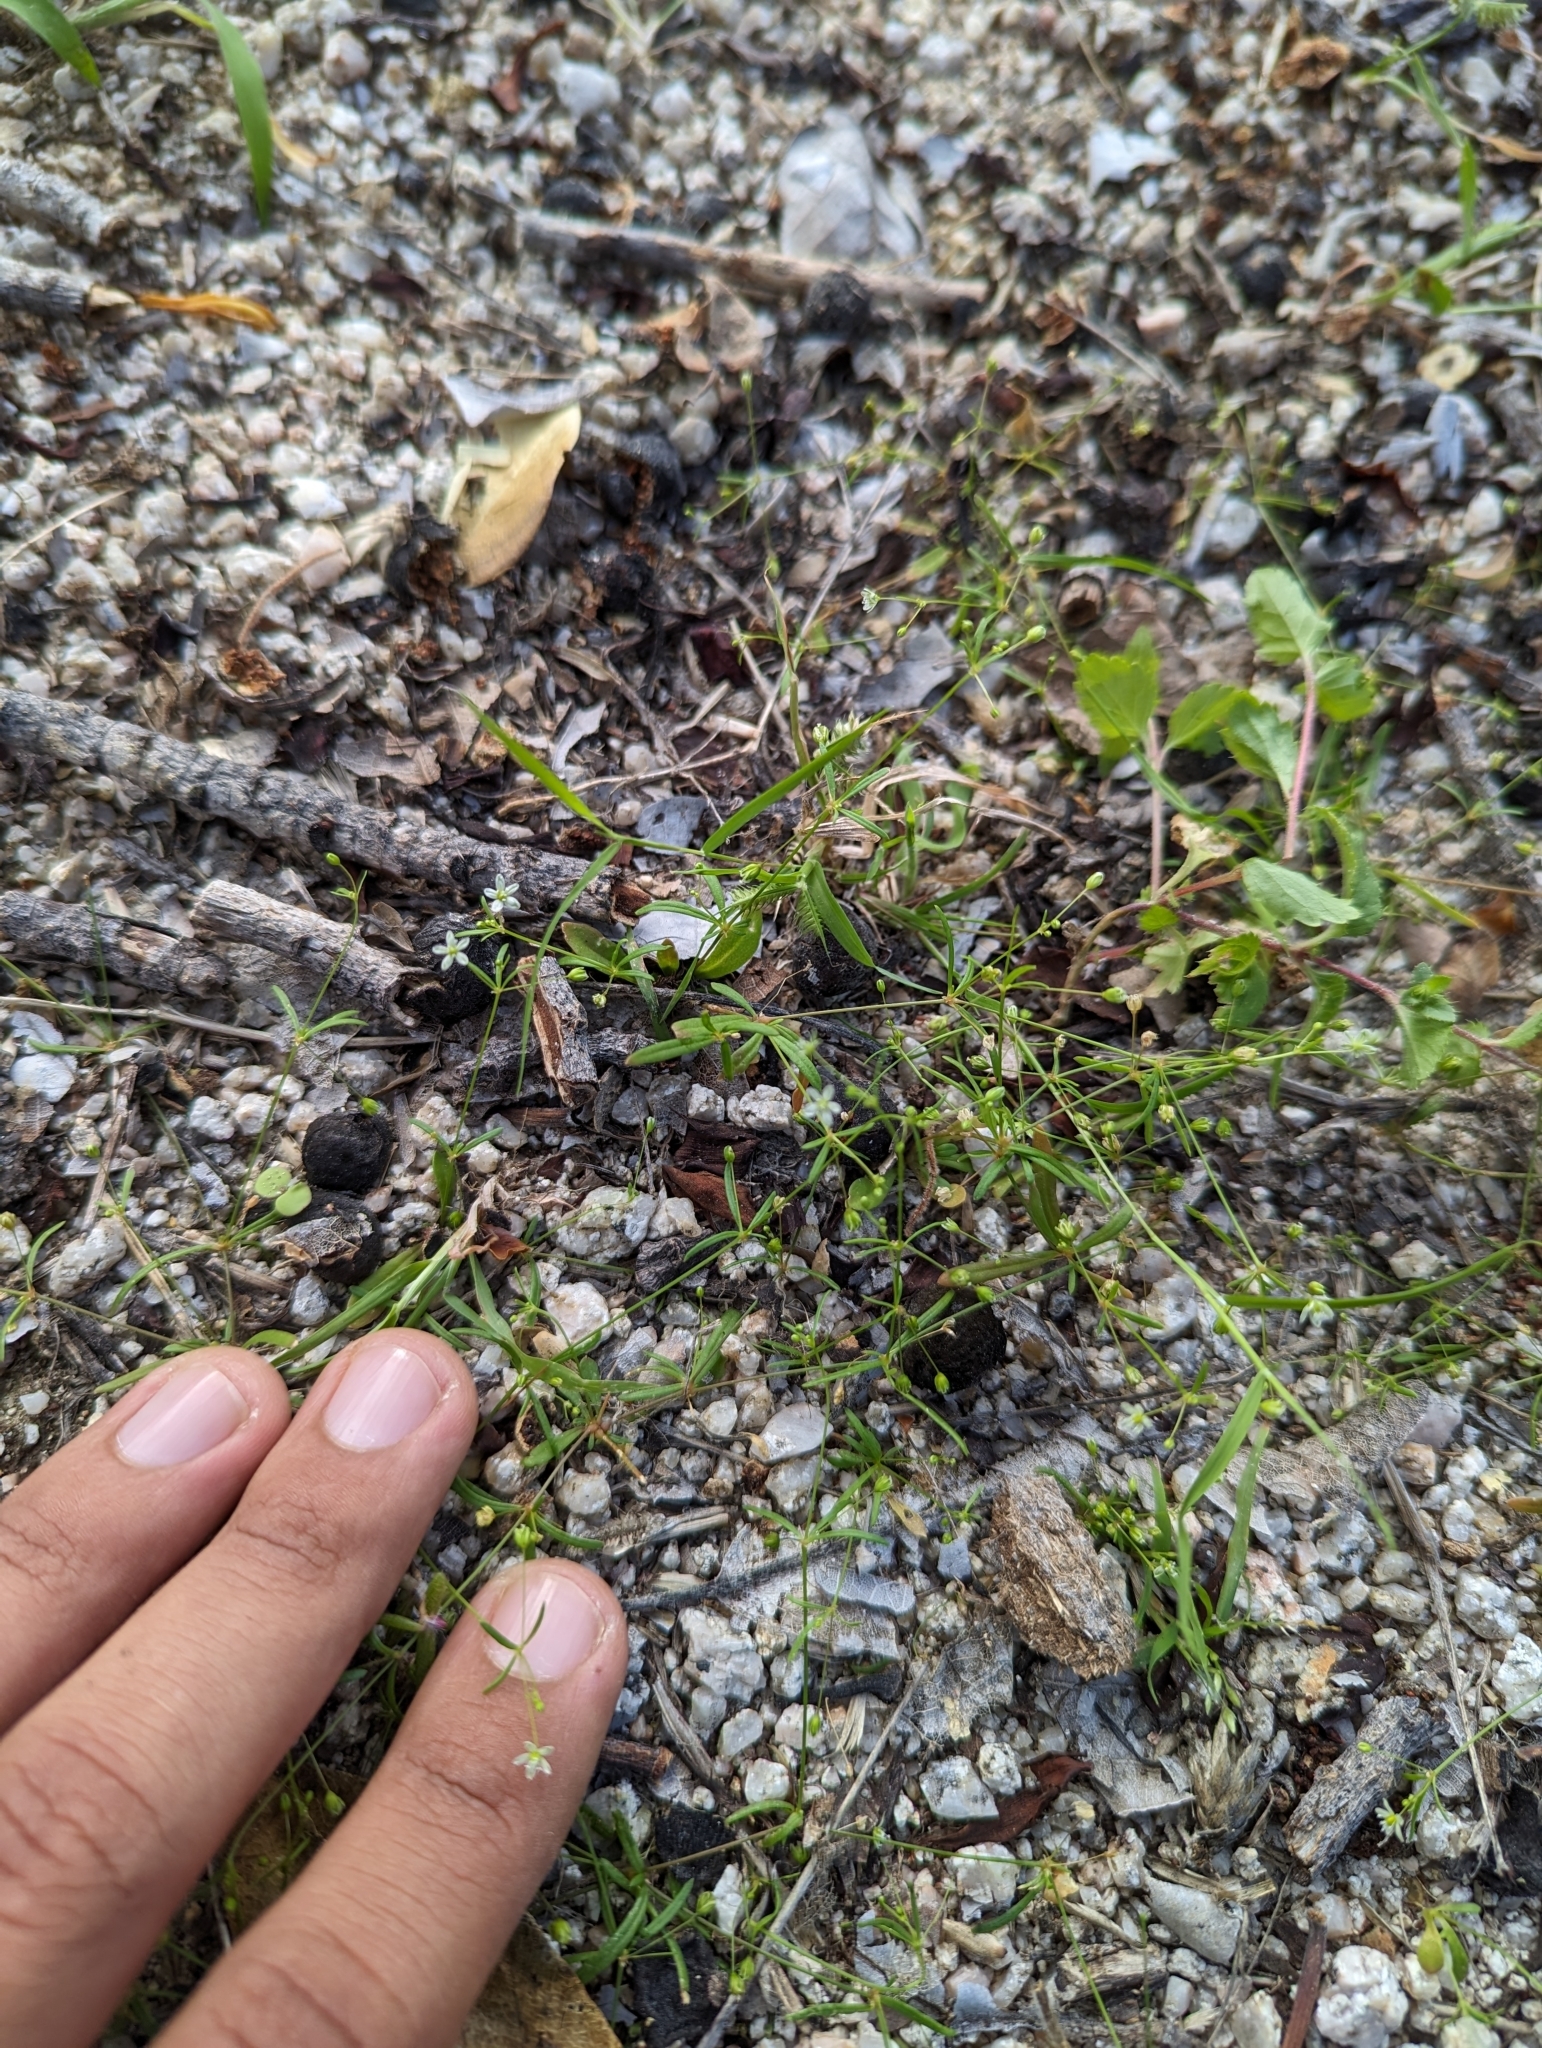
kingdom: Plantae
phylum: Tracheophyta
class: Magnoliopsida
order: Caryophyllales
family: Molluginaceae
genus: Mollugo
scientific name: Mollugo verticillata
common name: Green carpetweed
